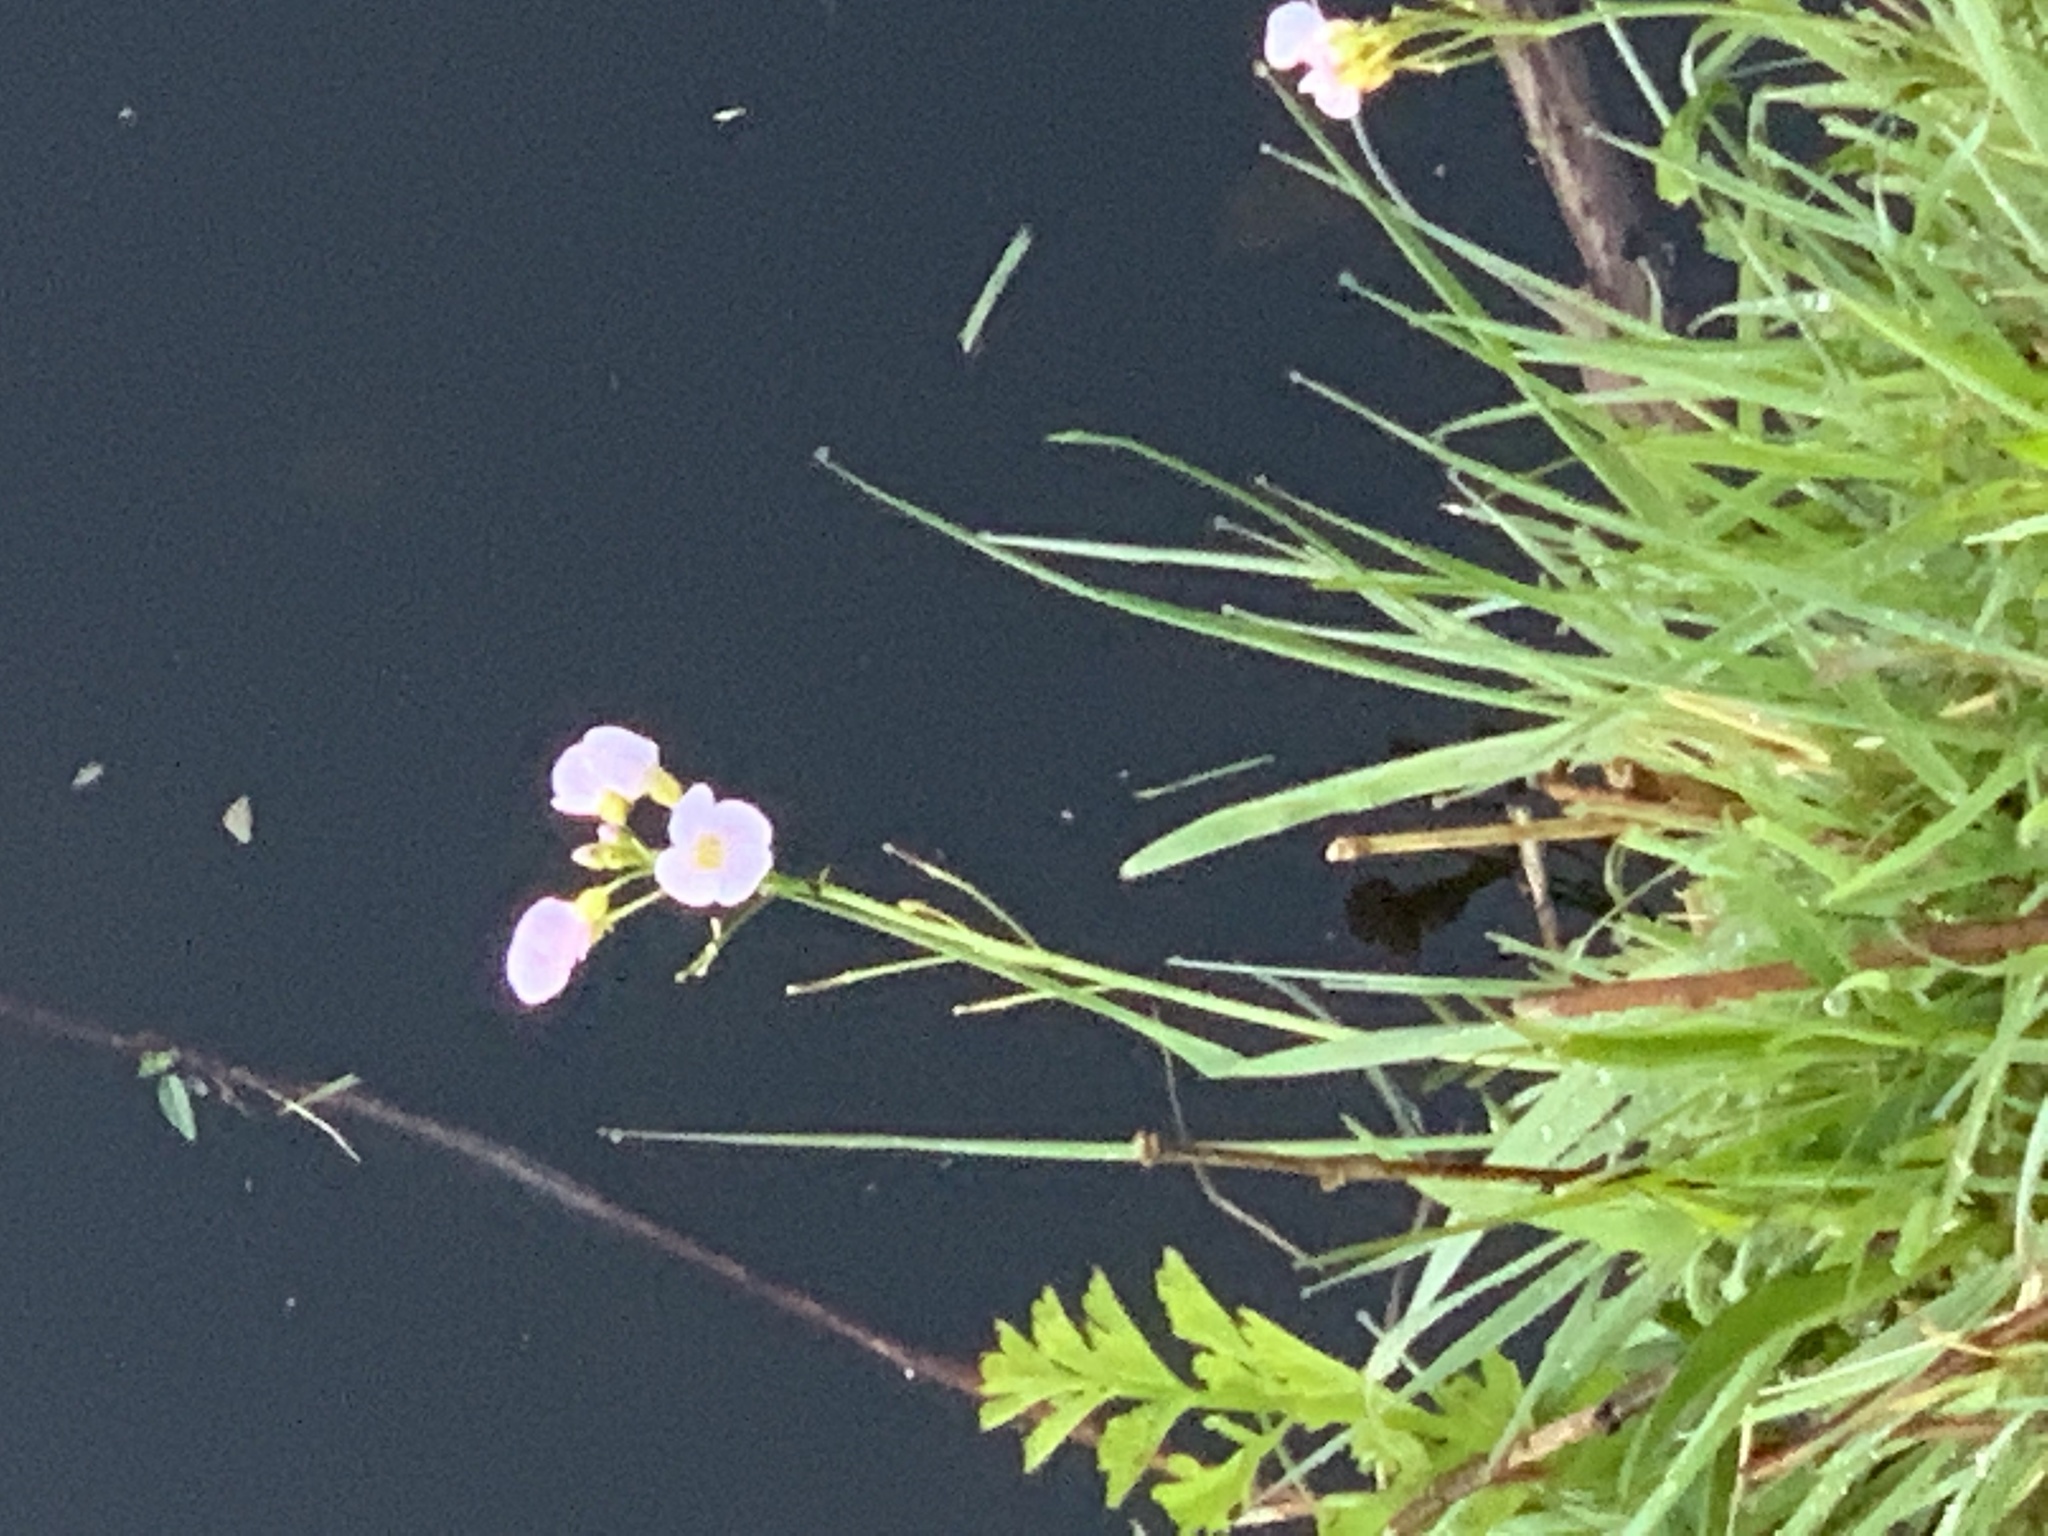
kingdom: Plantae
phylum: Tracheophyta
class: Magnoliopsida
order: Brassicales
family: Brassicaceae
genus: Cardamine
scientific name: Cardamine pratensis
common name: Cuckoo flower
